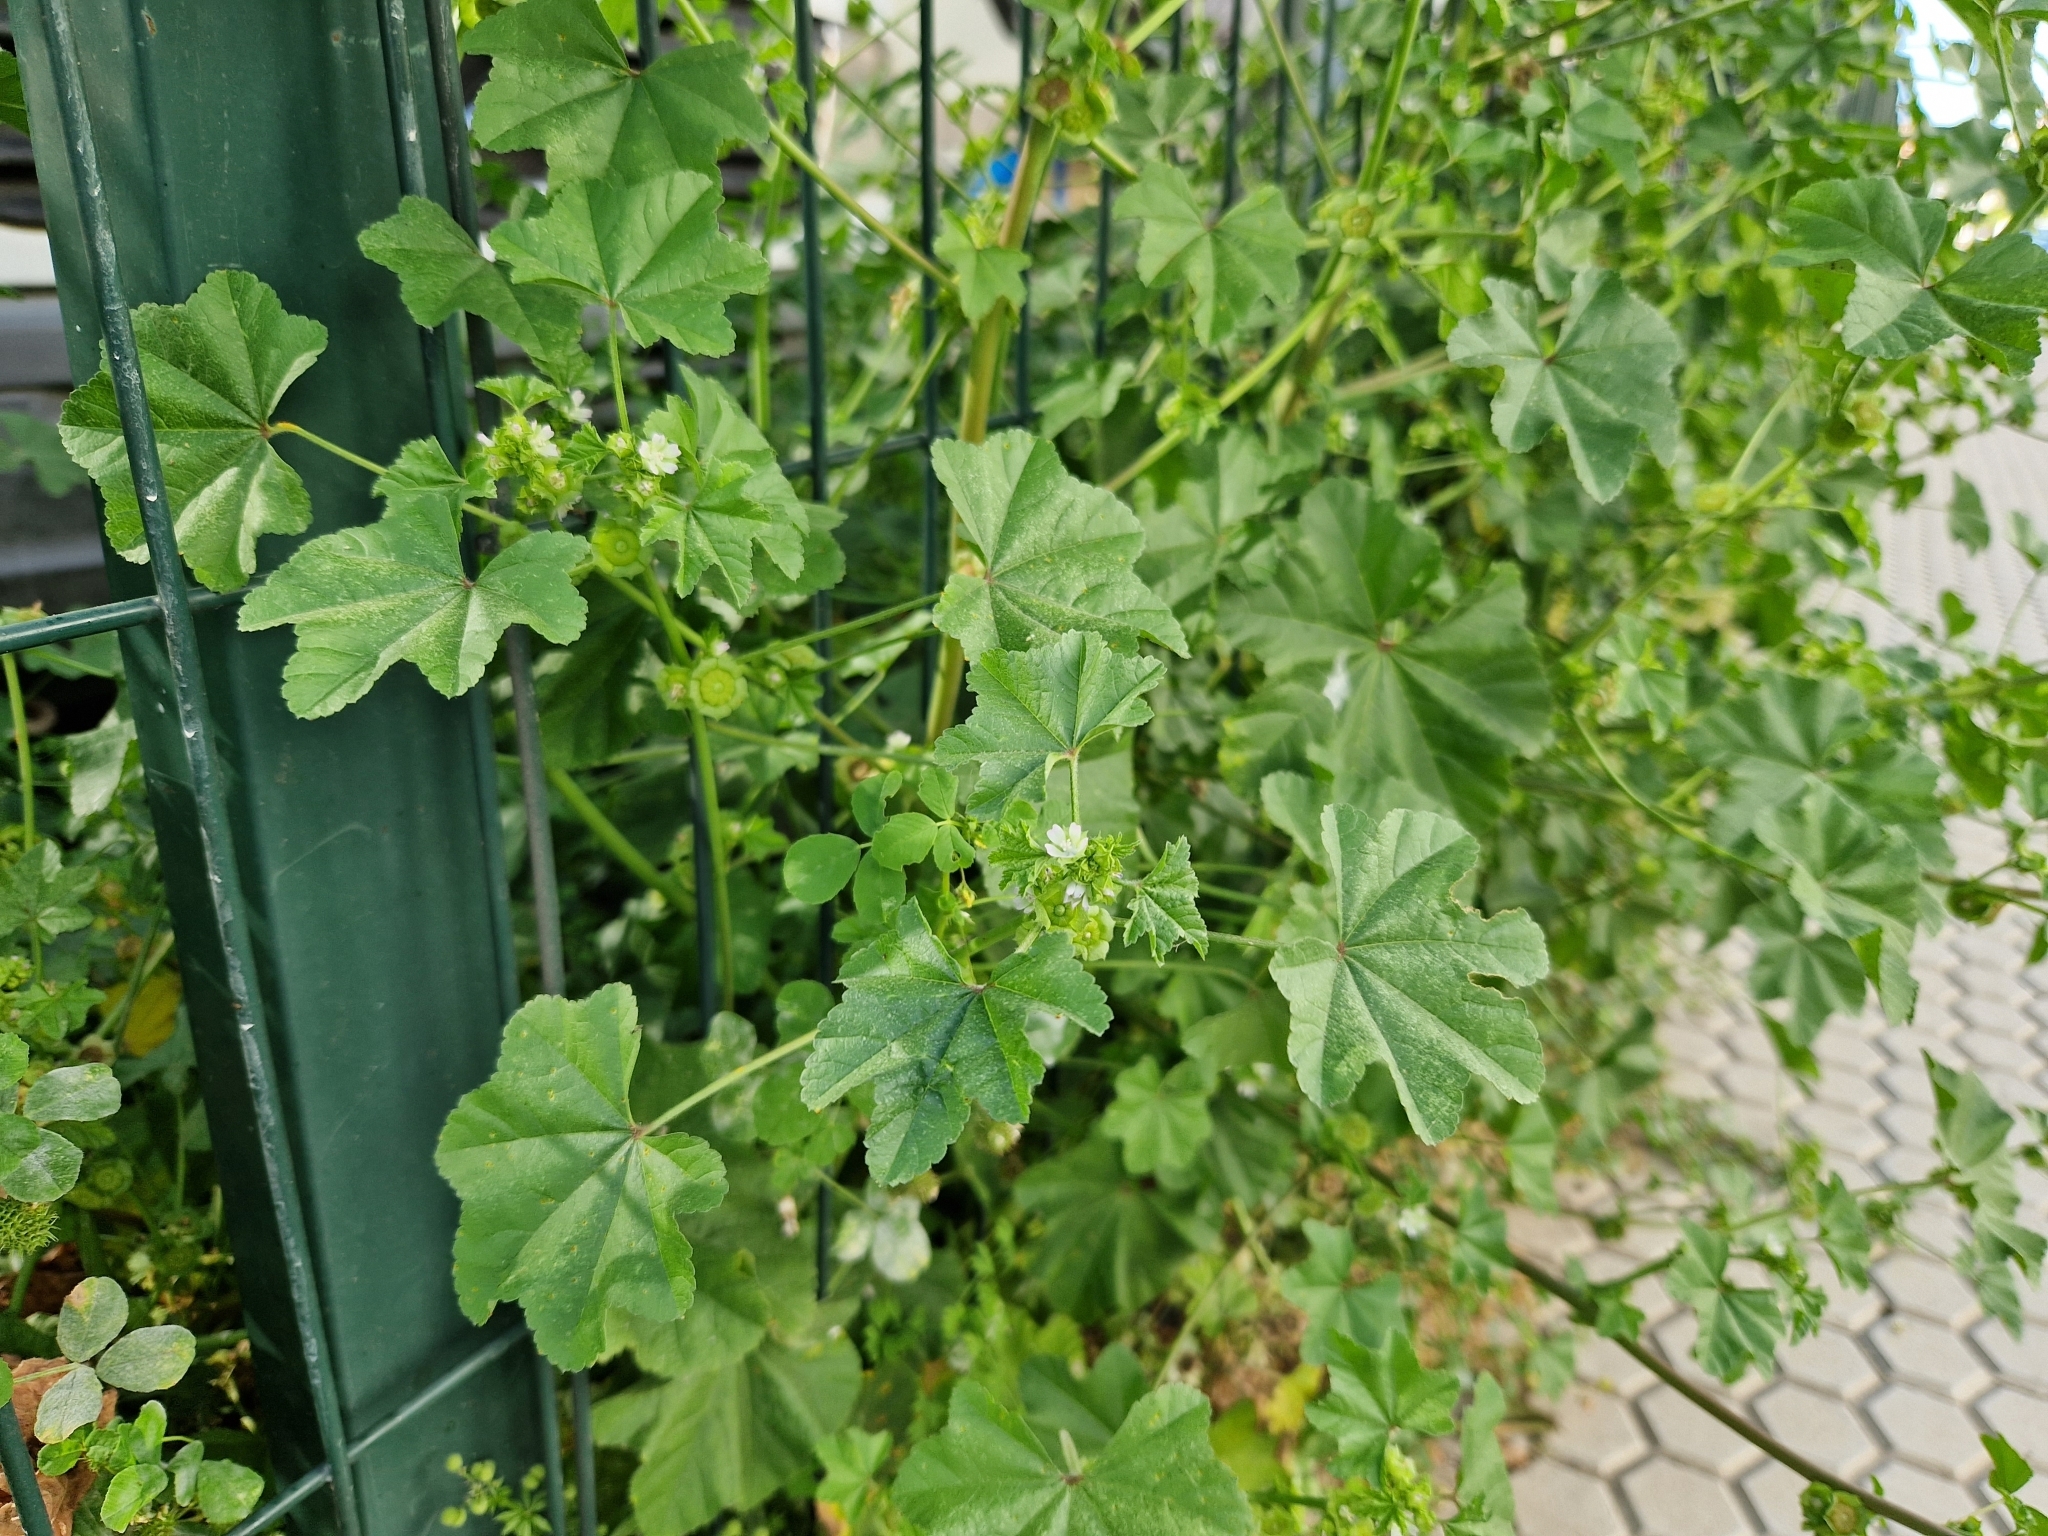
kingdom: Plantae
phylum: Tracheophyta
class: Magnoliopsida
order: Malvales
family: Malvaceae
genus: Malva
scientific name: Malva parviflora
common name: Least mallow
